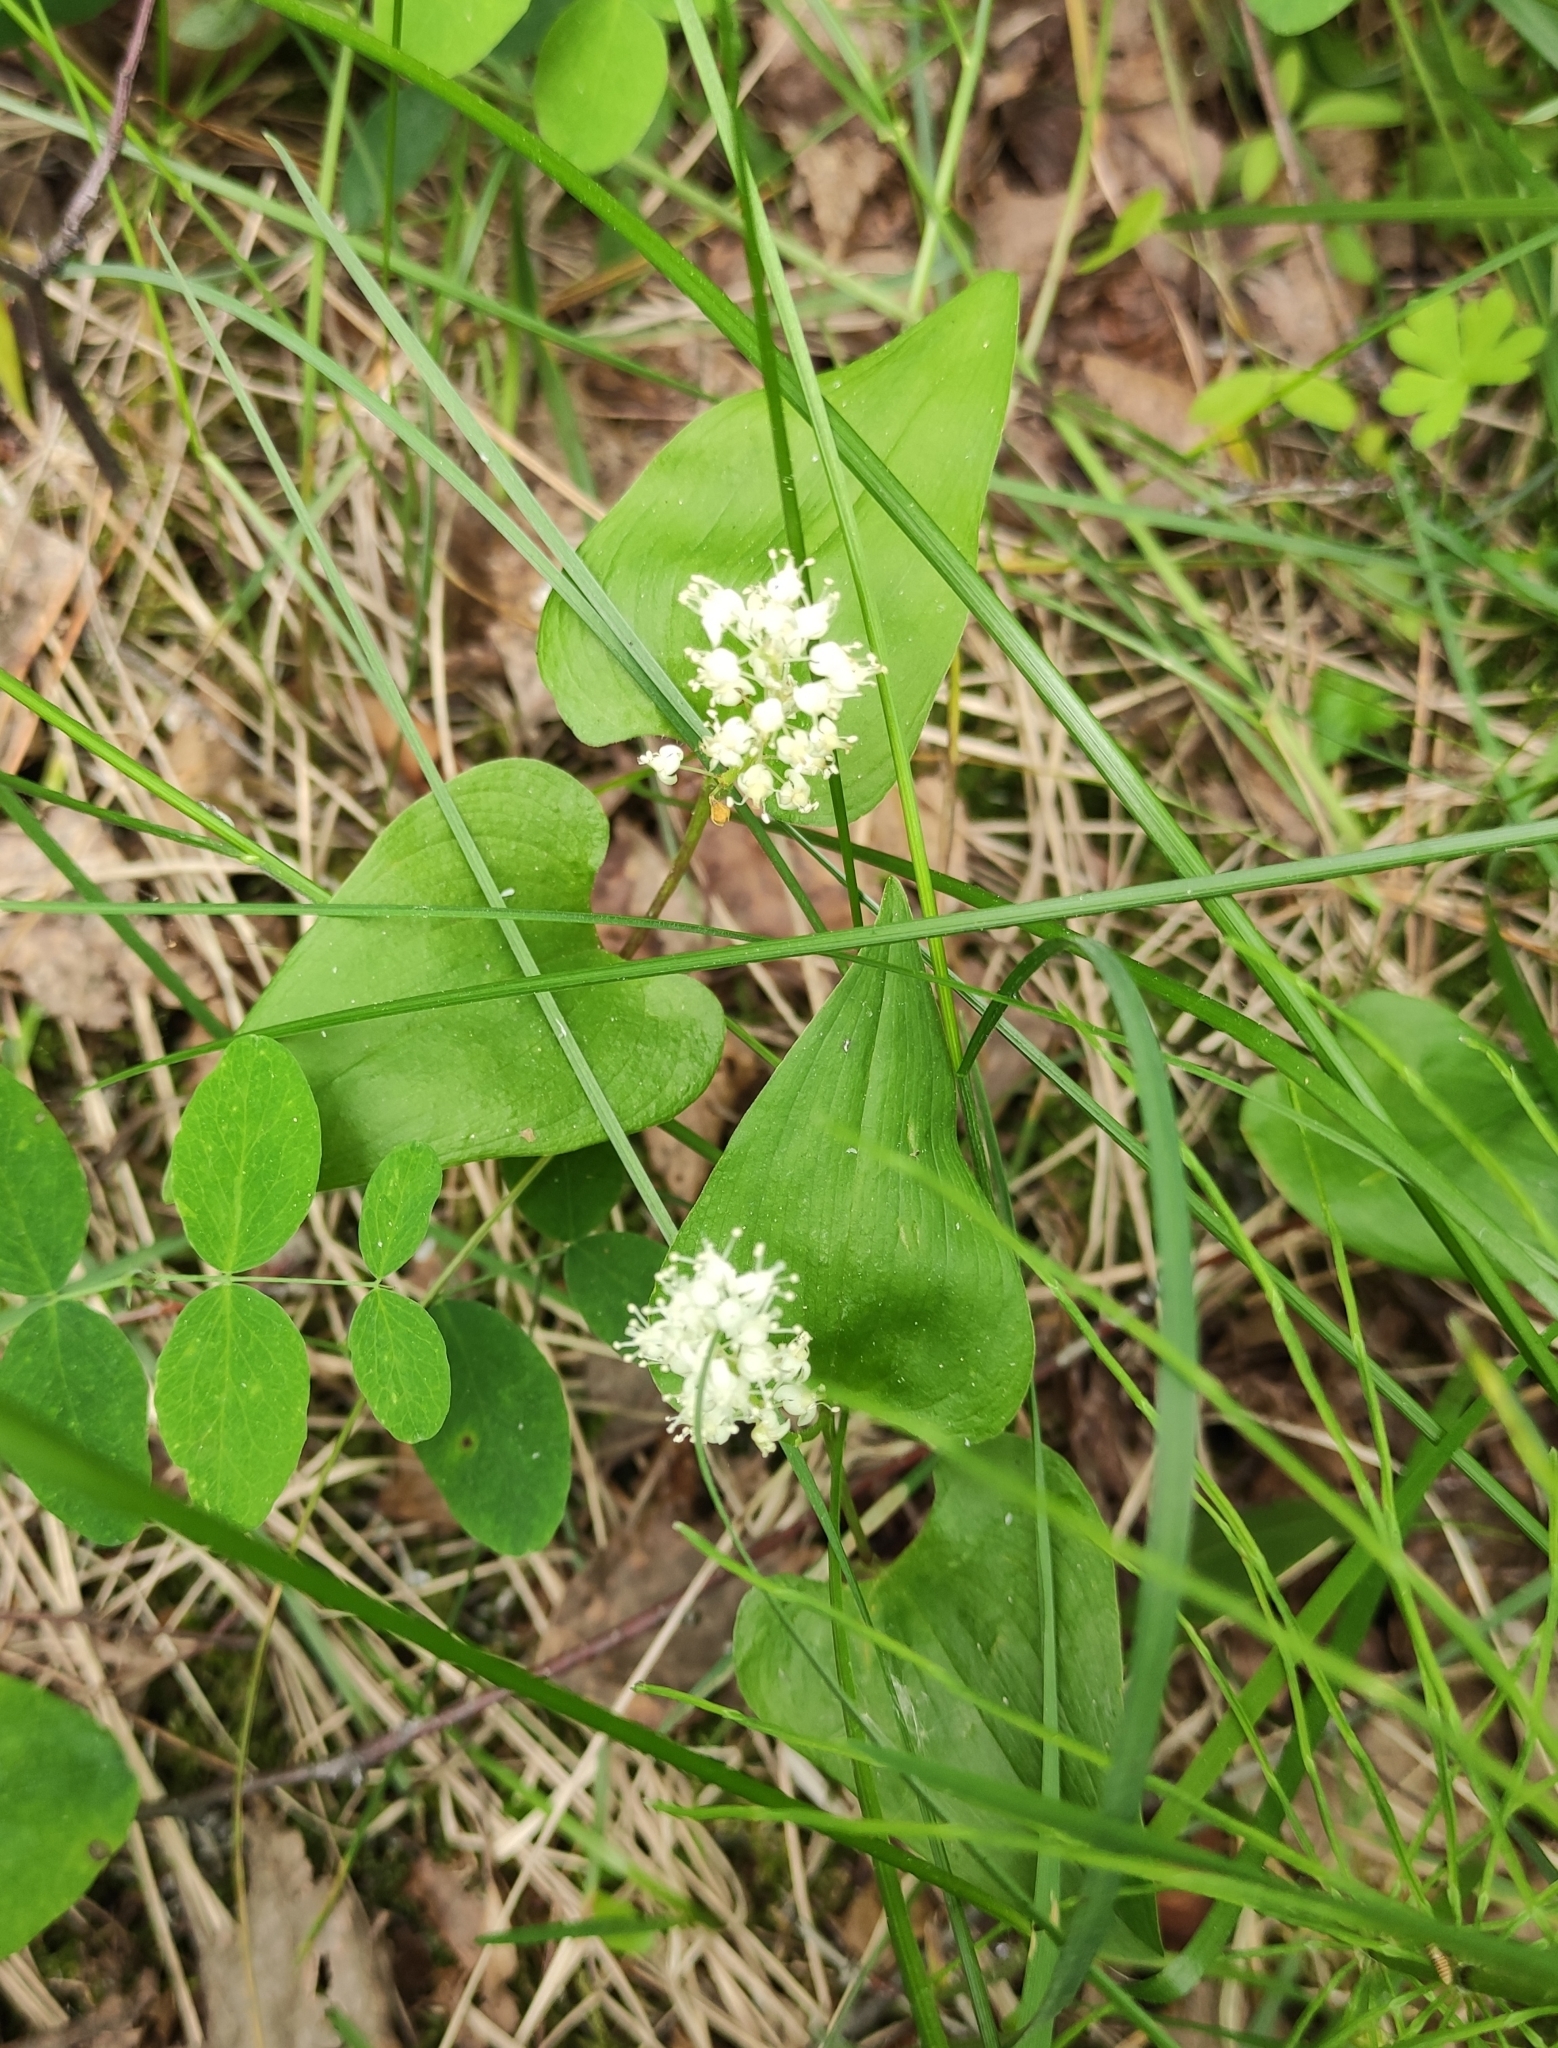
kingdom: Plantae
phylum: Tracheophyta
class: Liliopsida
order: Asparagales
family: Asparagaceae
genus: Maianthemum
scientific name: Maianthemum bifolium
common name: May lily
